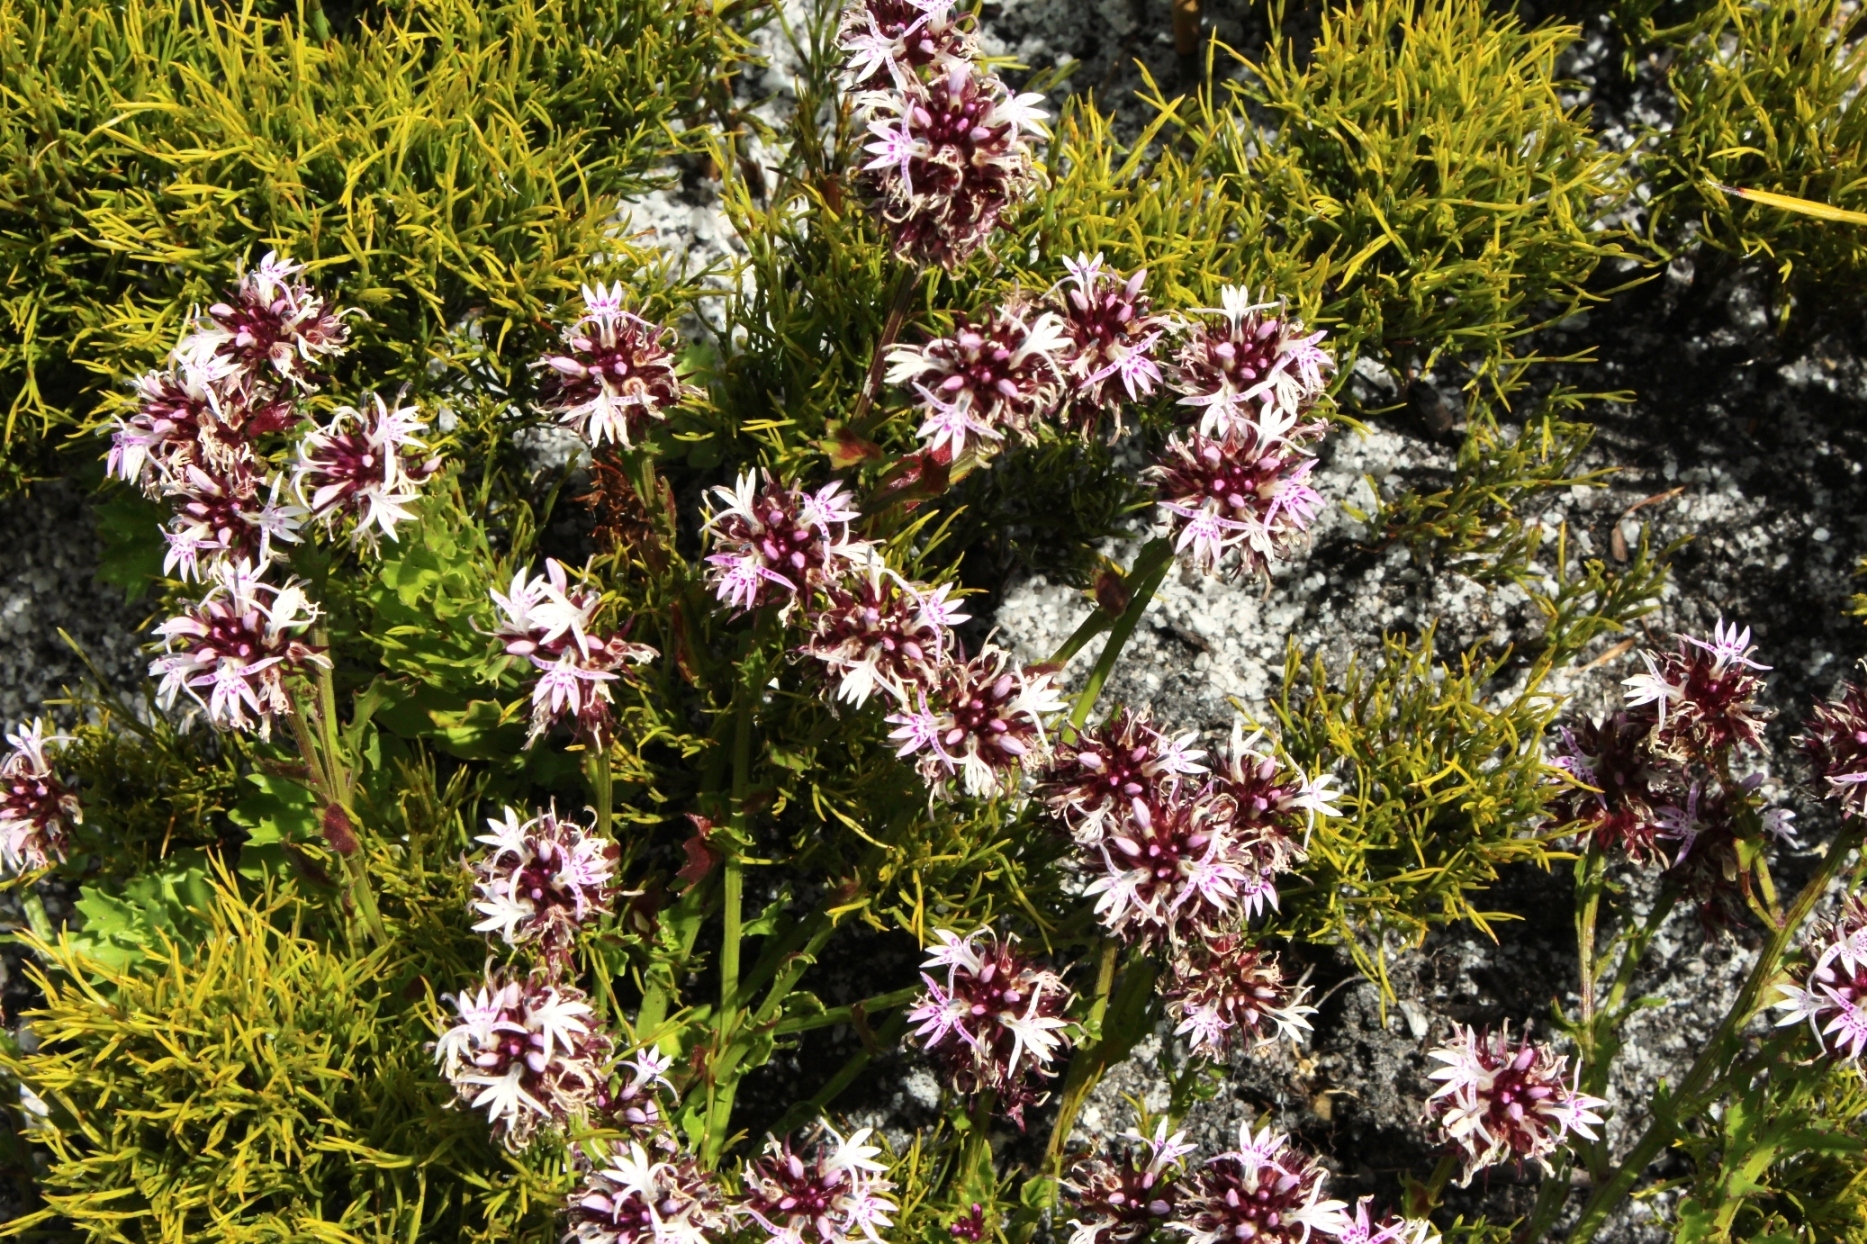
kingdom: Plantae
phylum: Tracheophyta
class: Magnoliopsida
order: Asterales
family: Campanulaceae
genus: Lobelia
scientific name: Lobelia jasionoides
